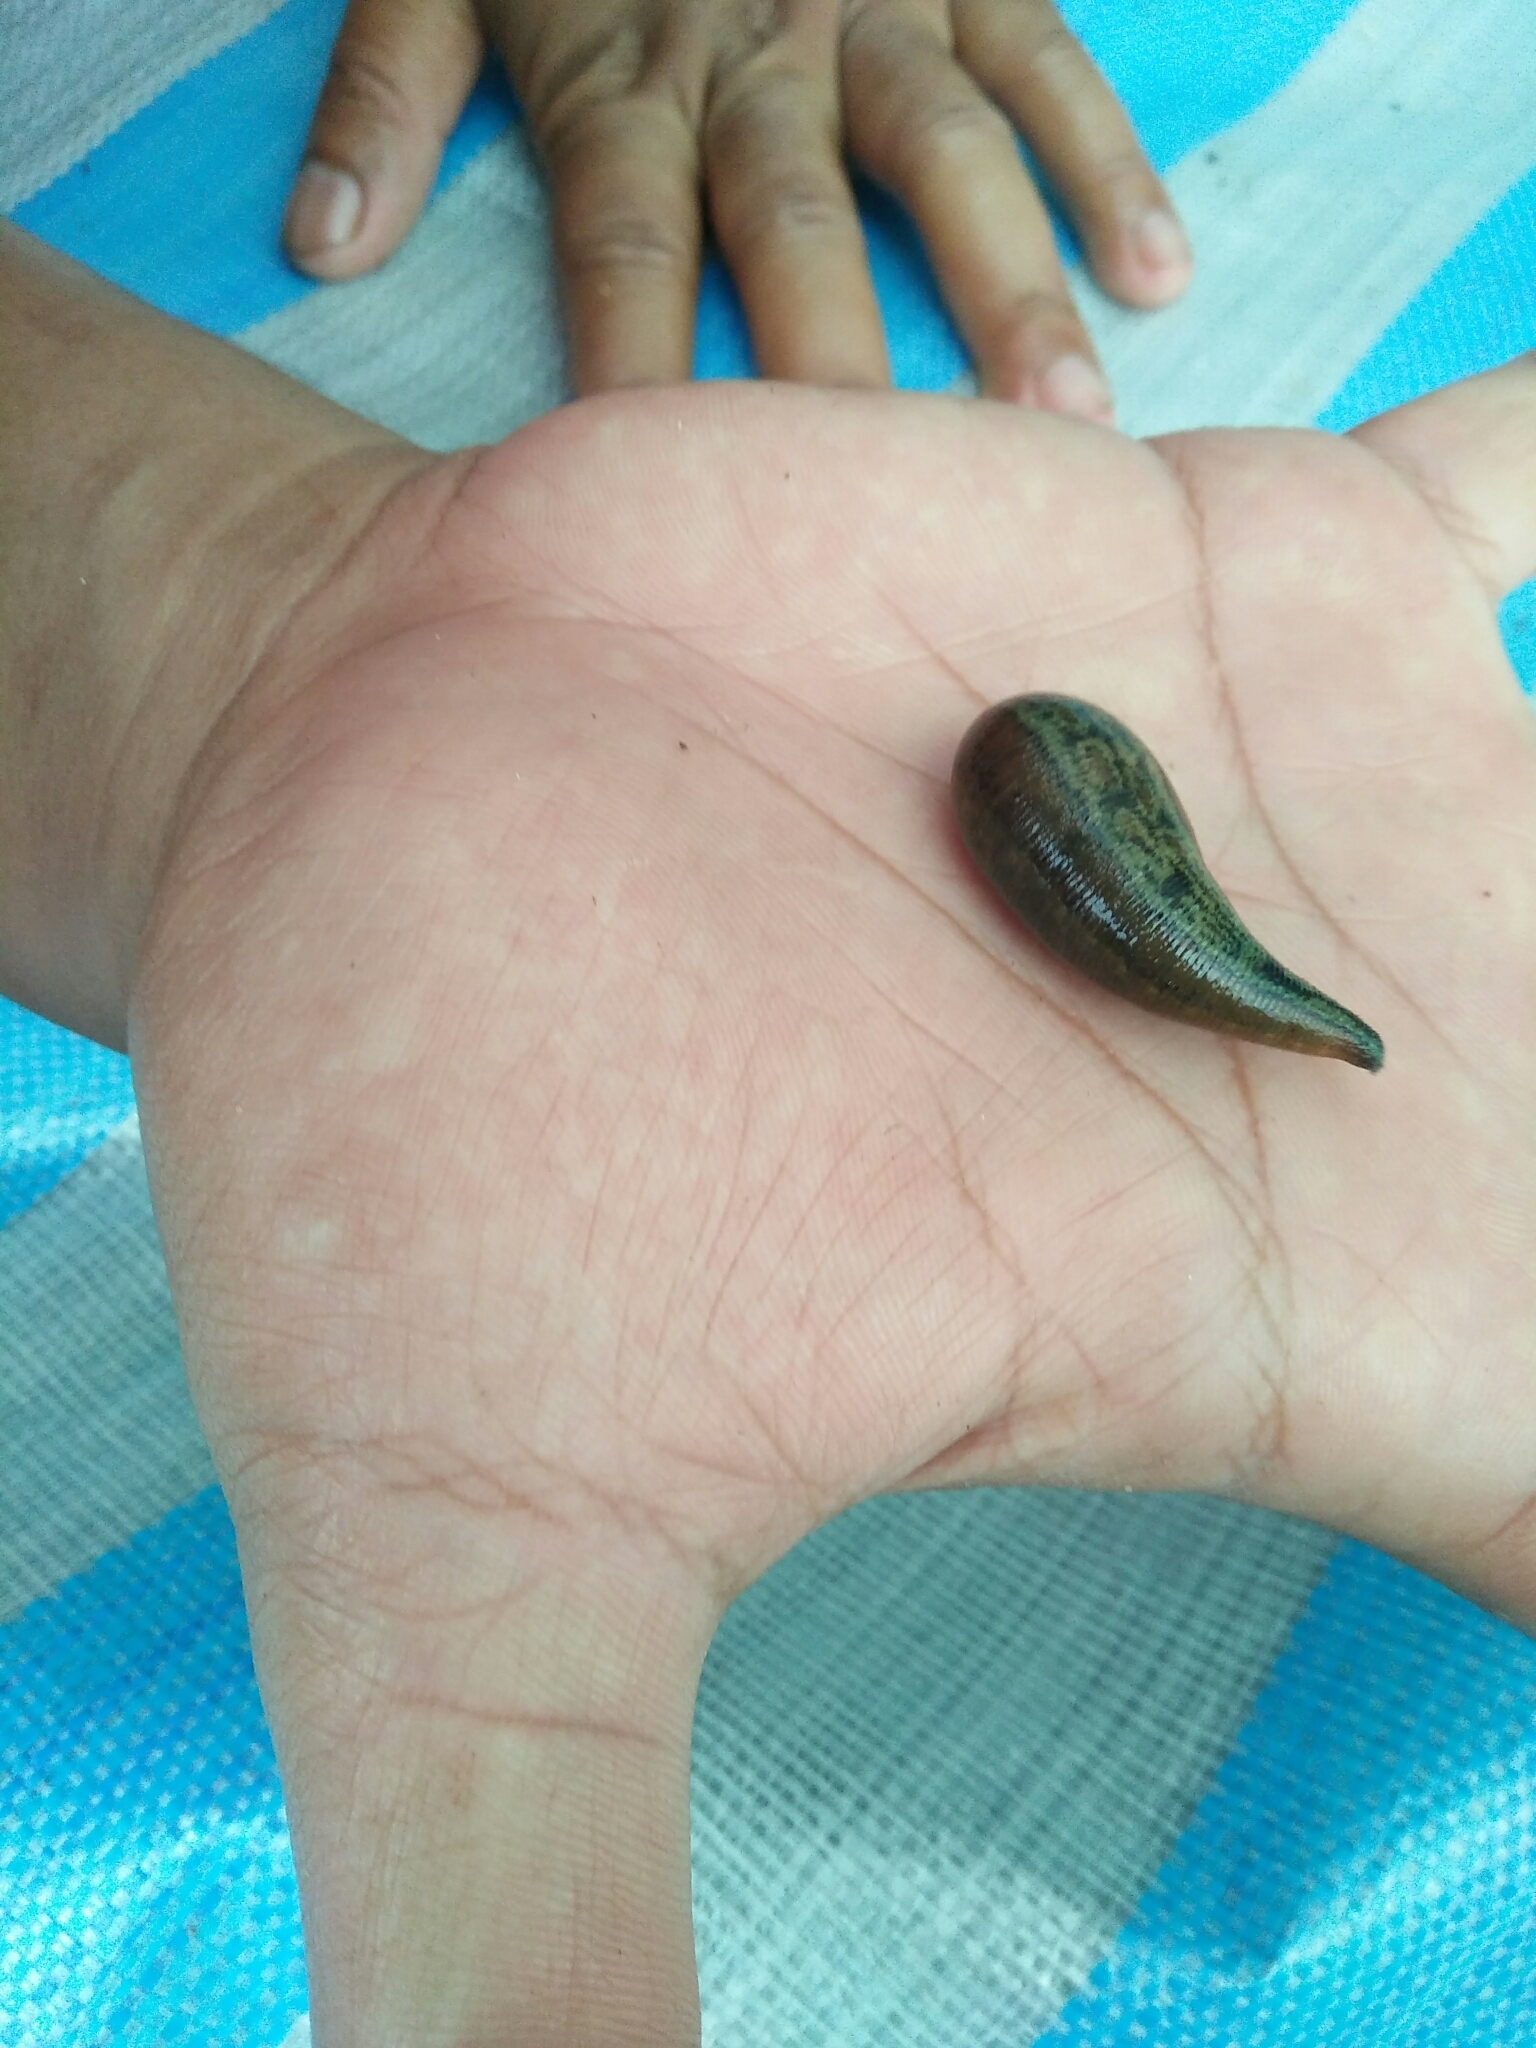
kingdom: Animalia
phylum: Annelida
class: Clitellata
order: Arhynchobdellida
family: Haemadipsidae
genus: Haemadipsa
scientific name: Haemadipsa picta
